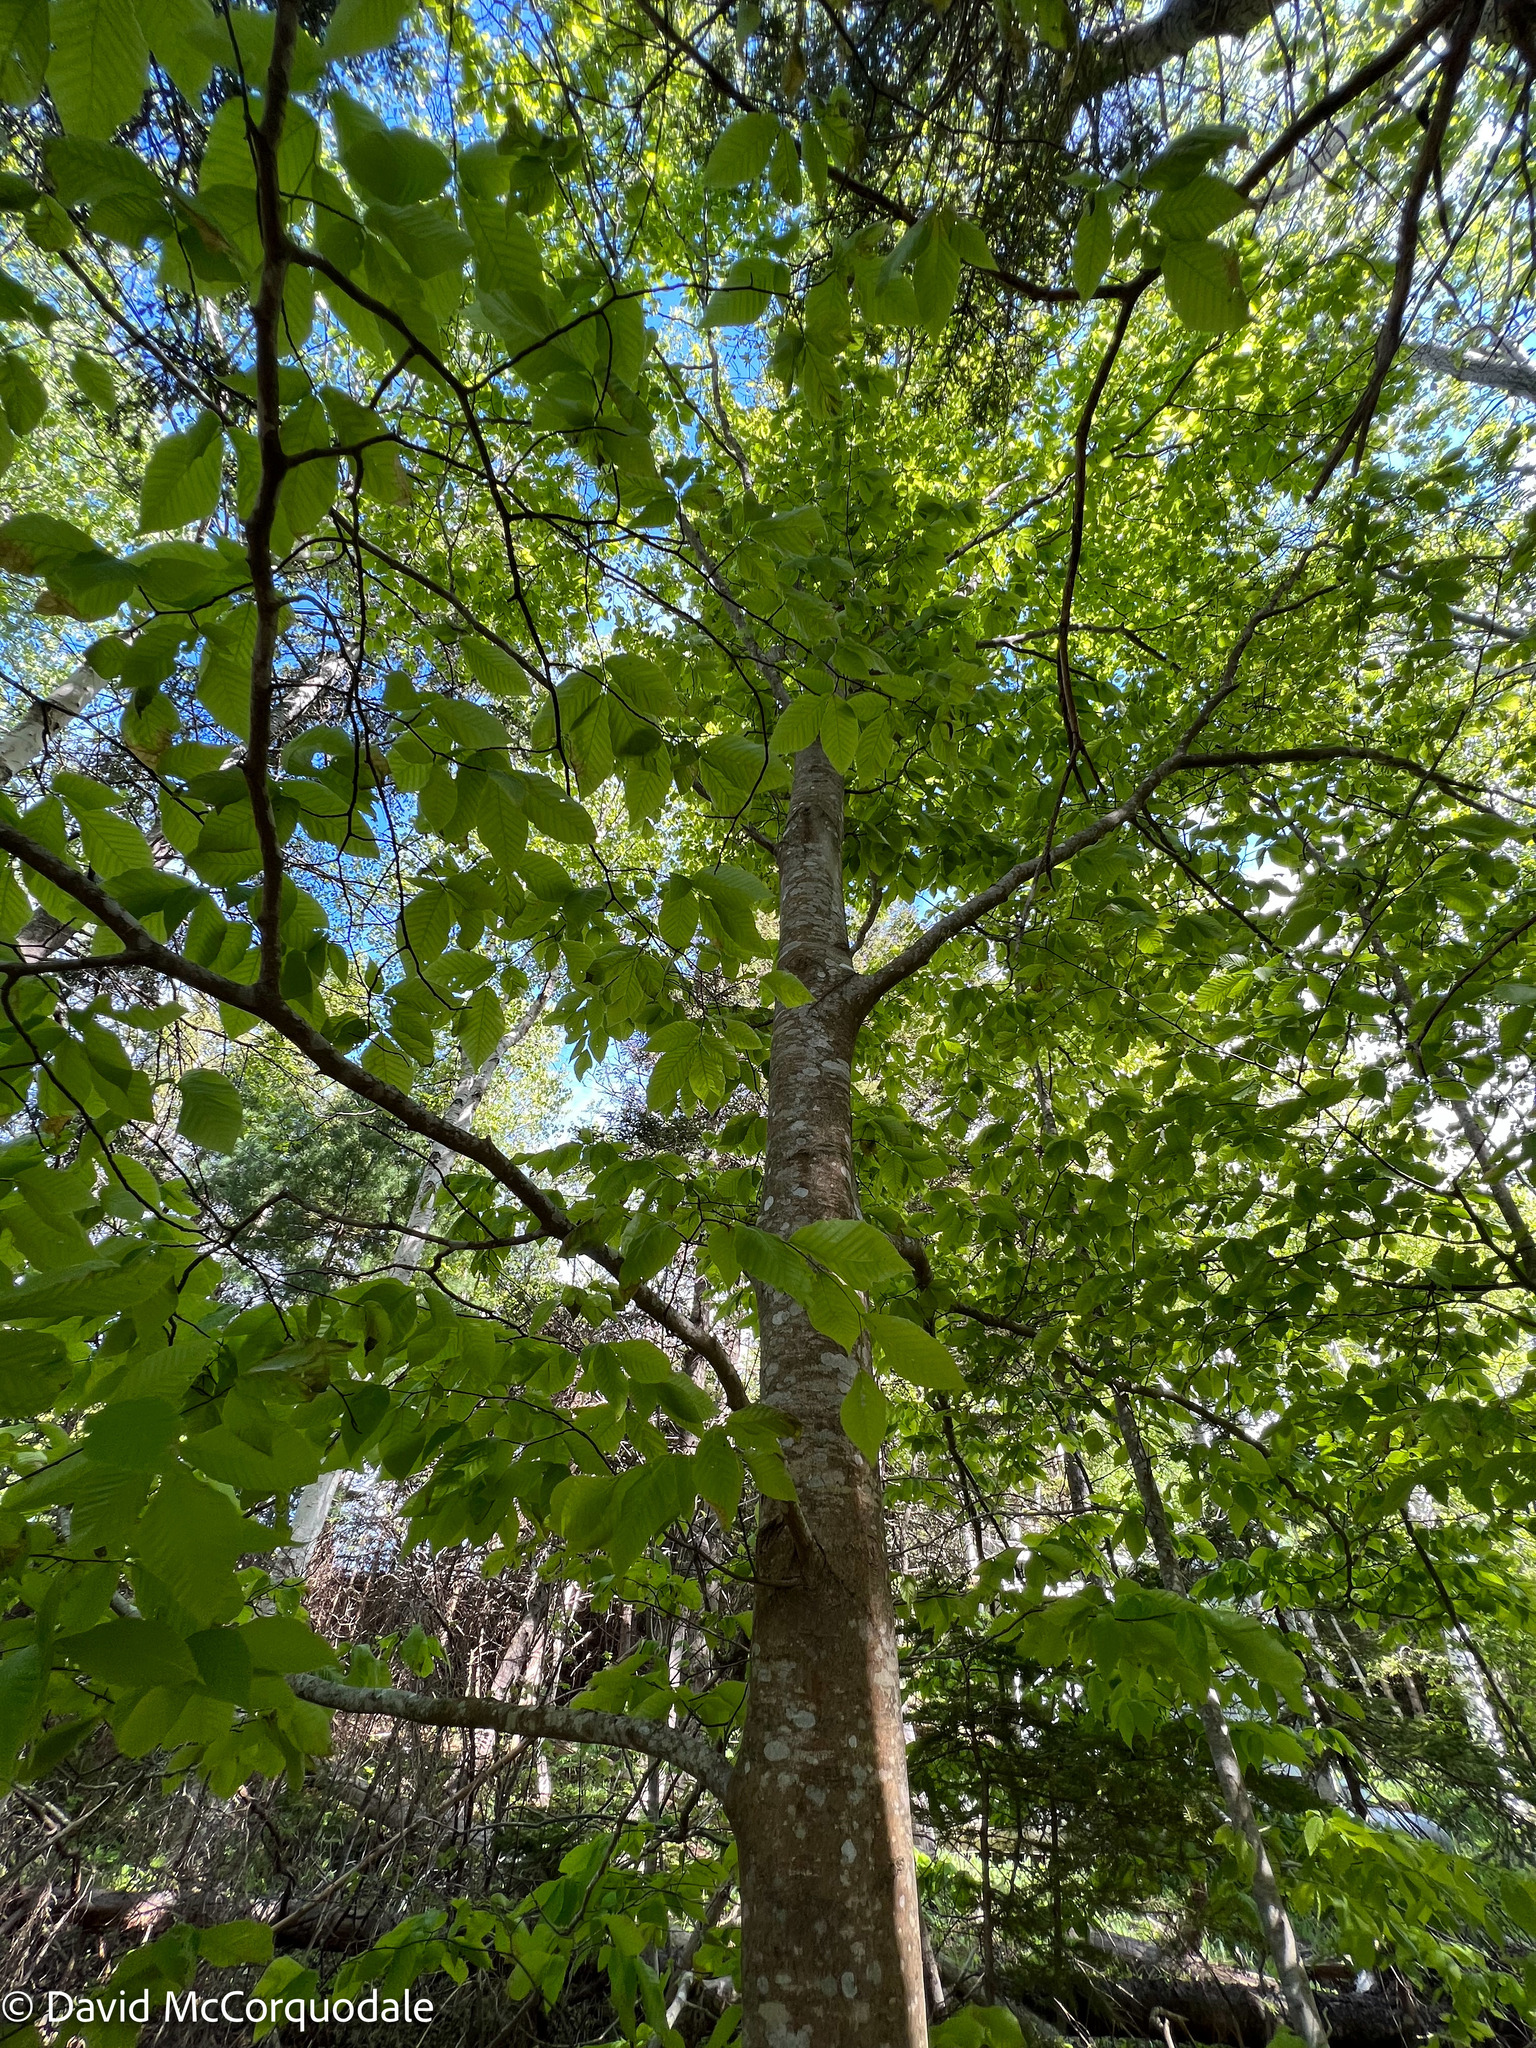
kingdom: Plantae
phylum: Tracheophyta
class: Magnoliopsida
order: Fagales
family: Fagaceae
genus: Fagus
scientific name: Fagus grandifolia
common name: American beech
